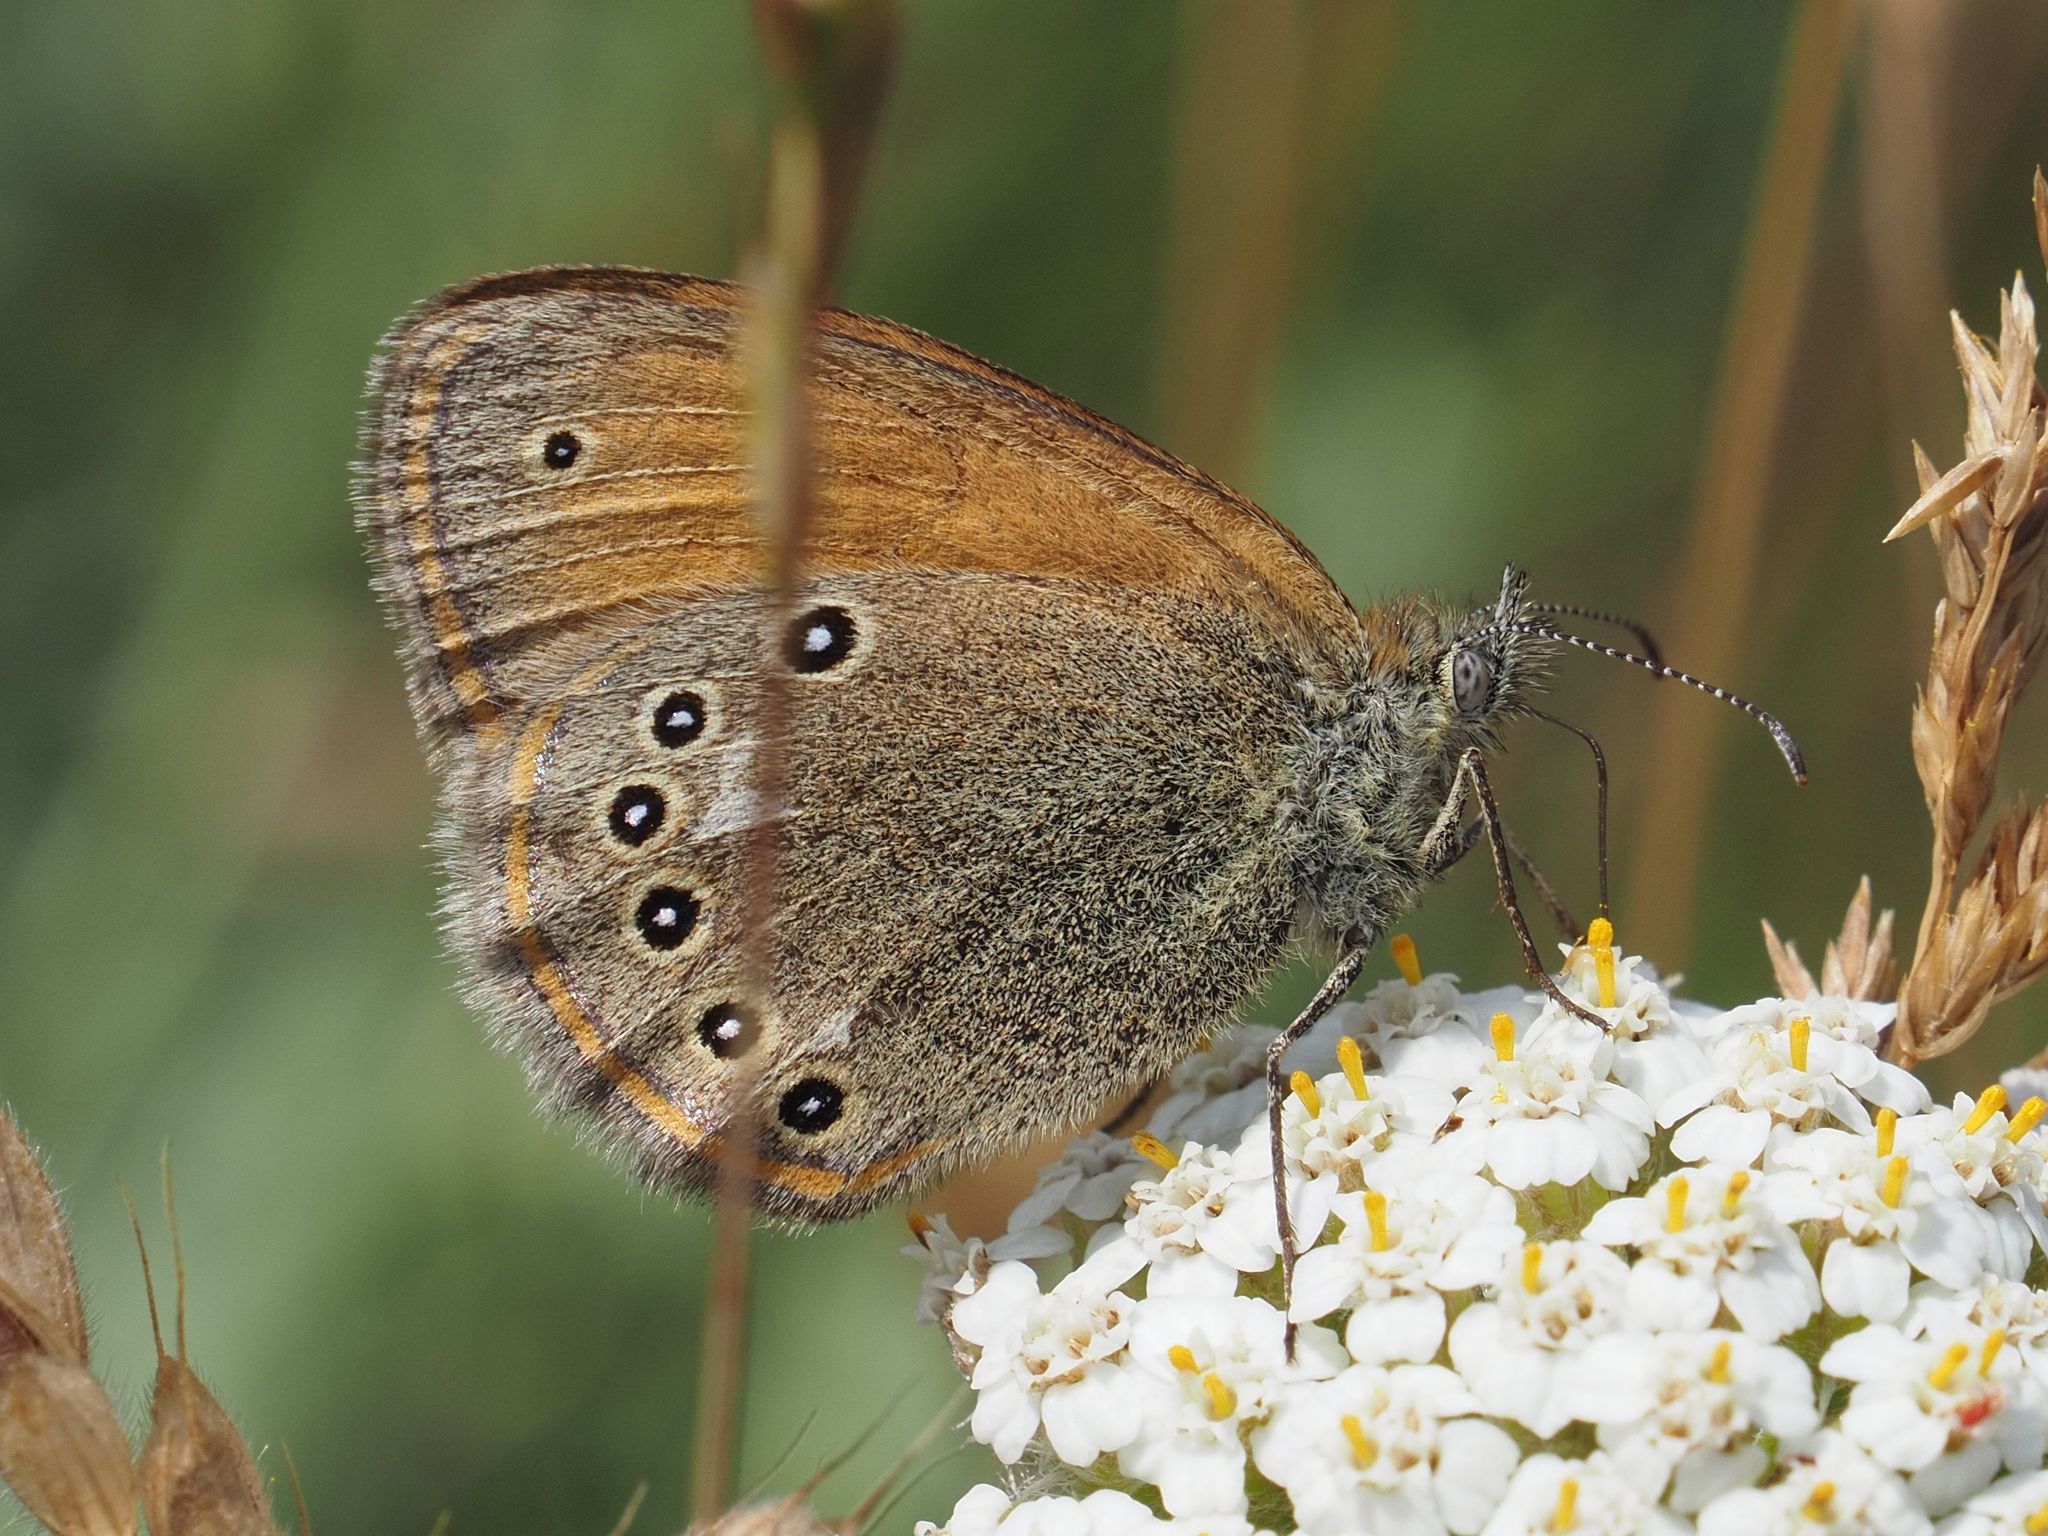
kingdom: Animalia
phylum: Arthropoda
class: Insecta
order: Lepidoptera
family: Nymphalidae
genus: Coenonympha
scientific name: Coenonympha iphis
